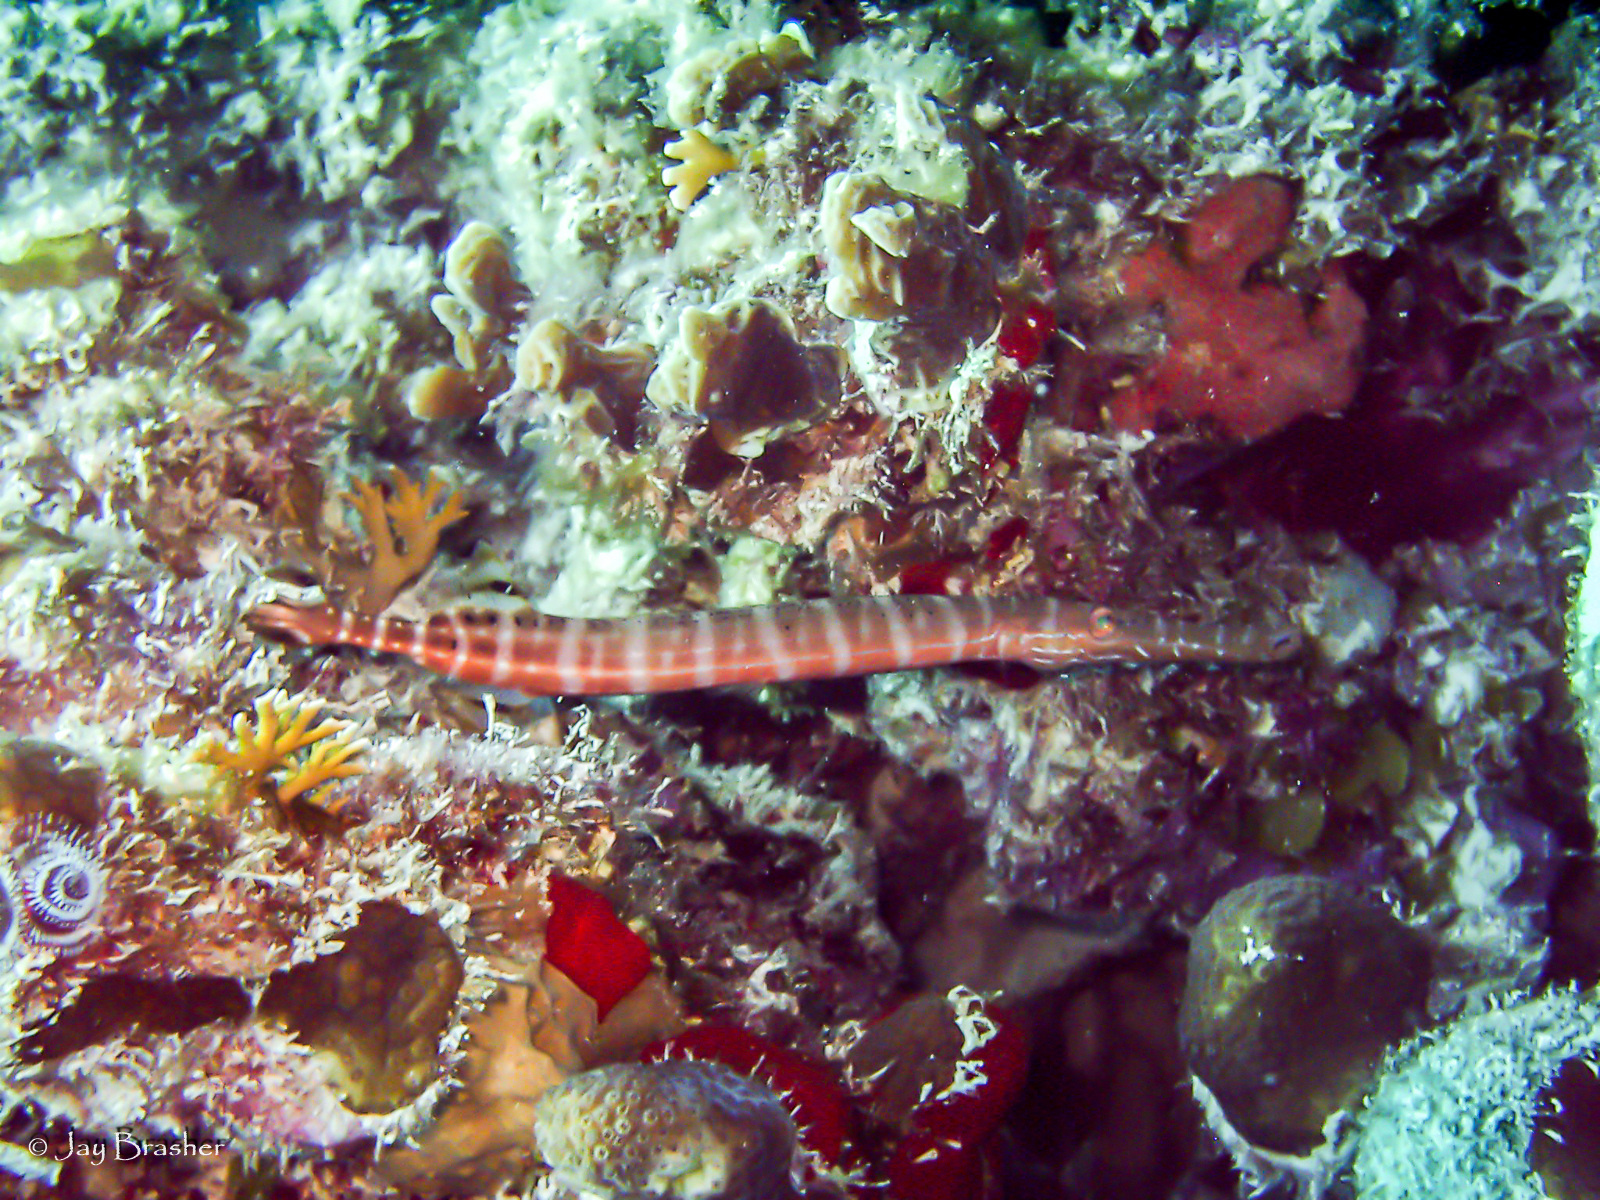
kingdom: Animalia
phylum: Chordata
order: Syngnathiformes
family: Aulostomidae
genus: Aulostomus
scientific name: Aulostomus maculatus
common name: West atlantic trumpetfish
